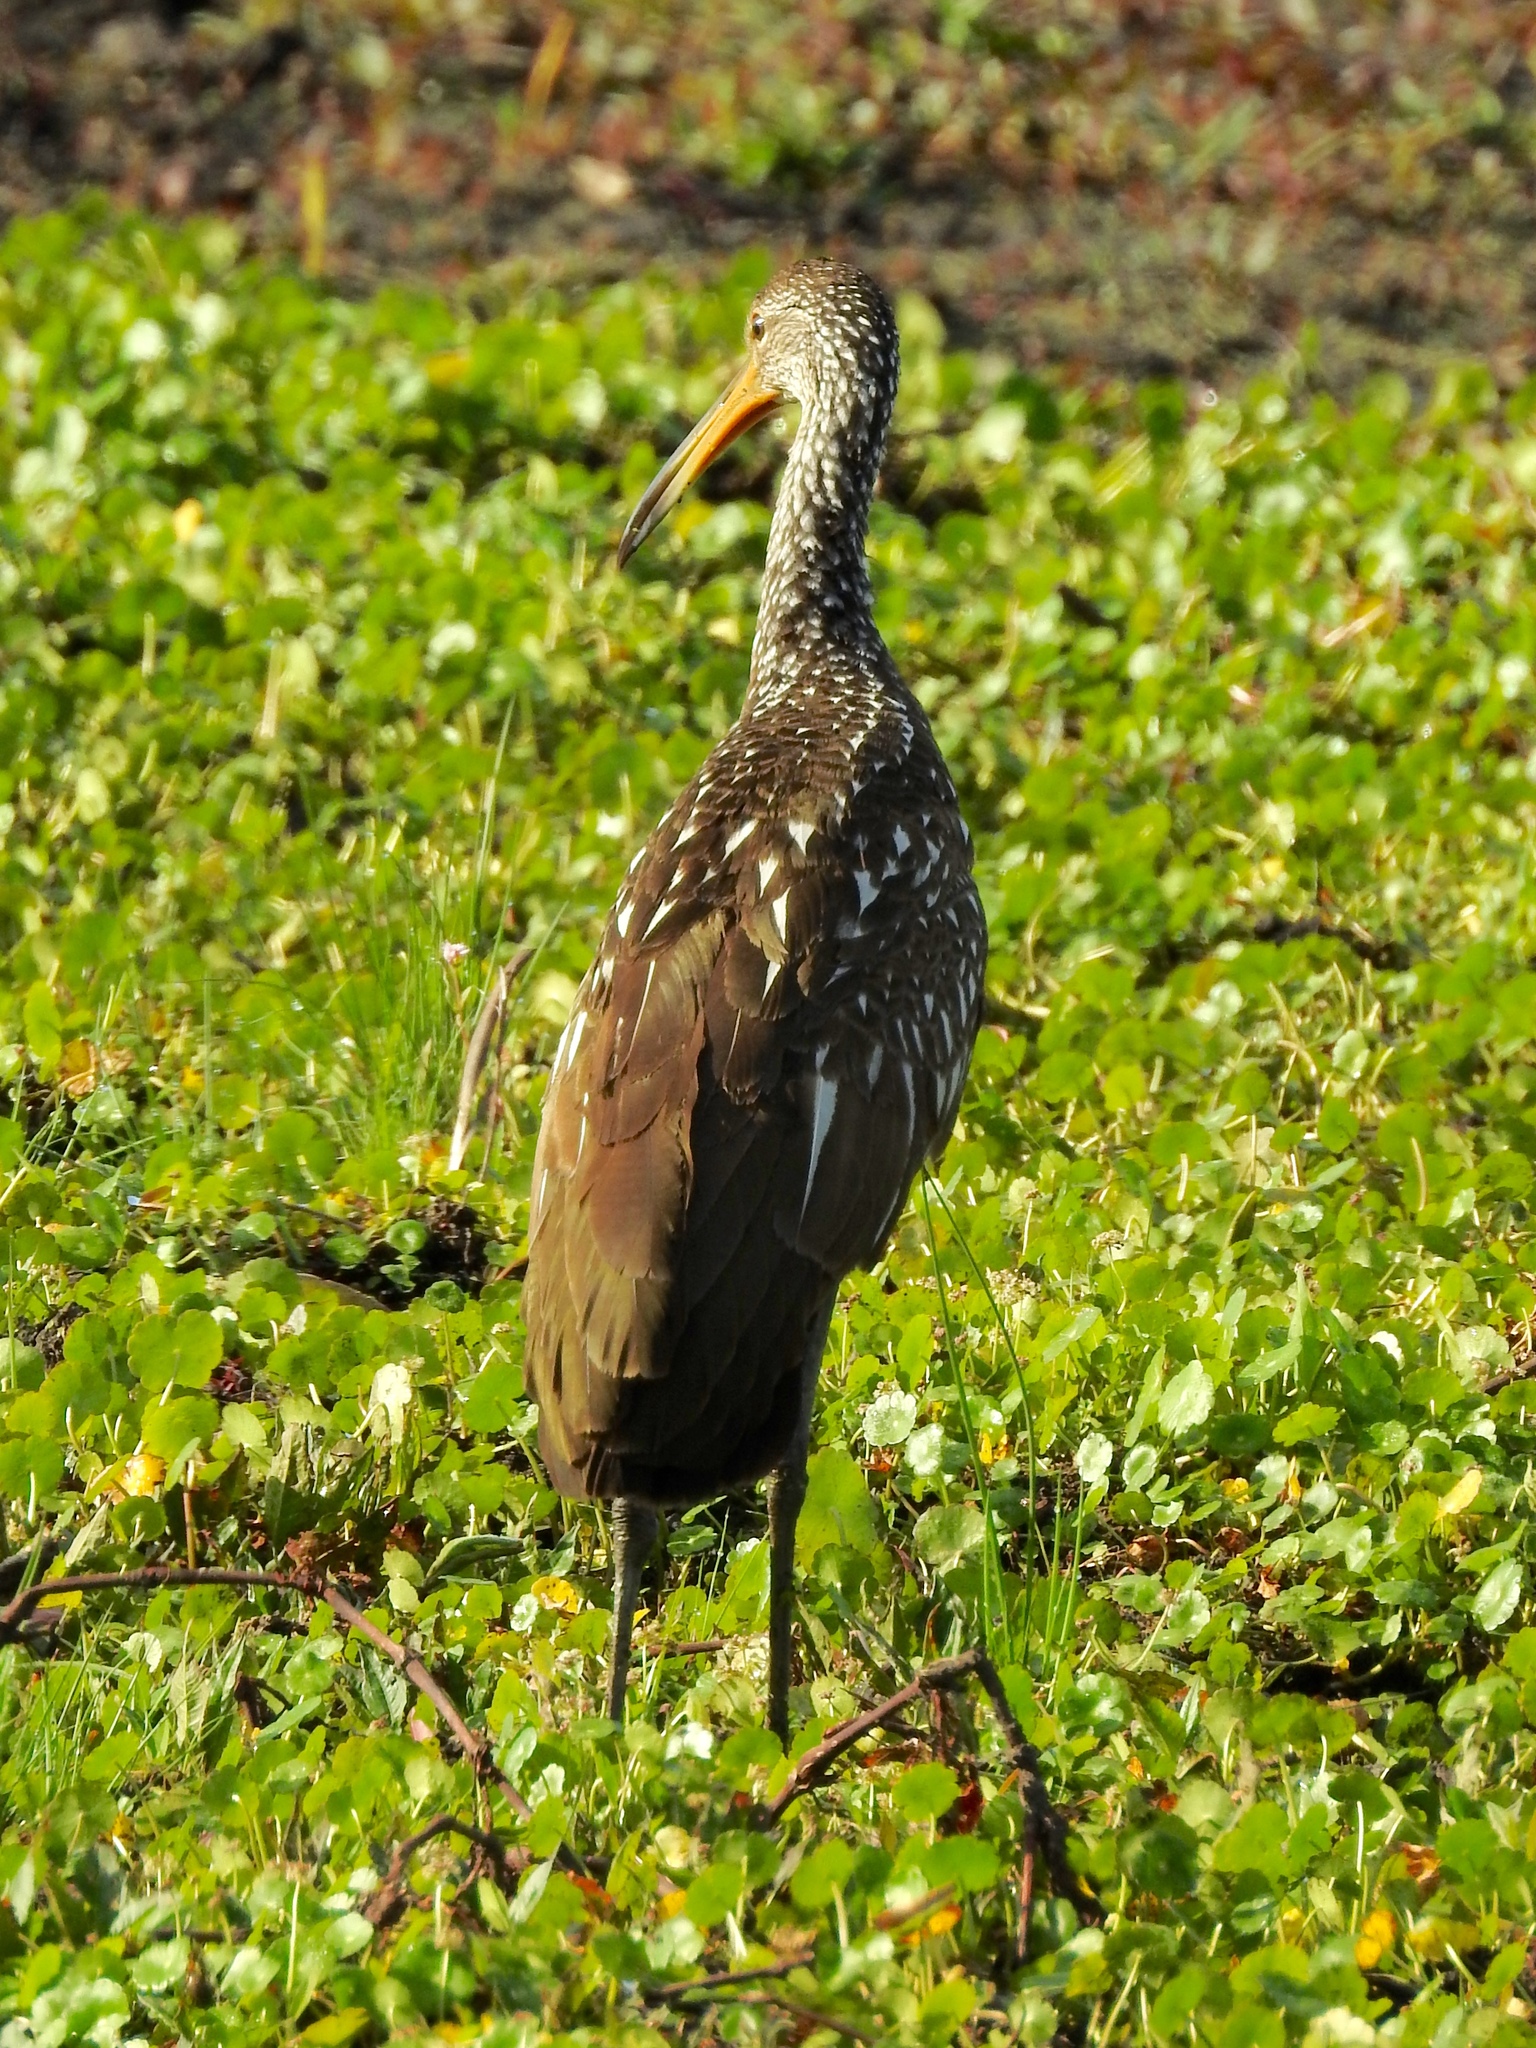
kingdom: Animalia
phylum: Chordata
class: Aves
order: Gruiformes
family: Aramidae
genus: Aramus
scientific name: Aramus guarauna
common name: Limpkin
